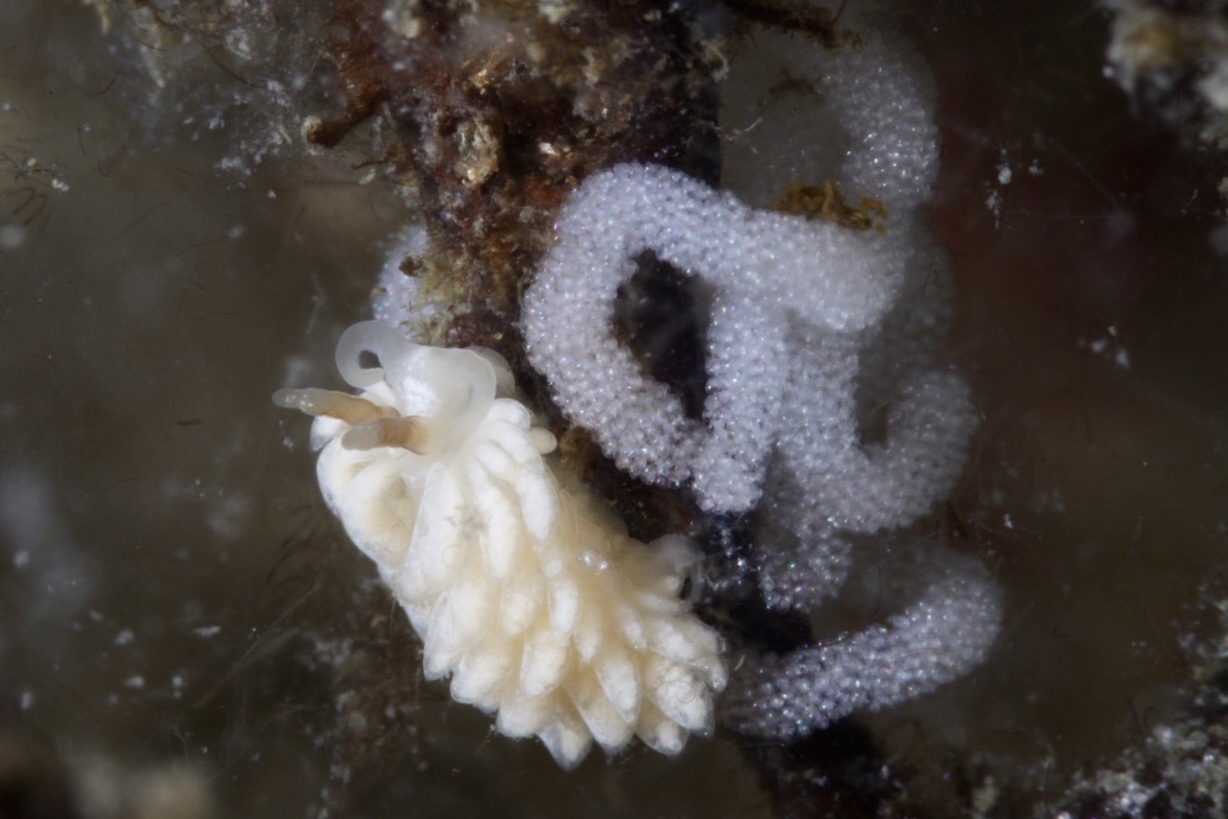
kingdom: Animalia
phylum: Mollusca
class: Gastropoda
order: Nudibranchia
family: Facelinidae
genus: Favorinus
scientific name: Favorinus branchialis
